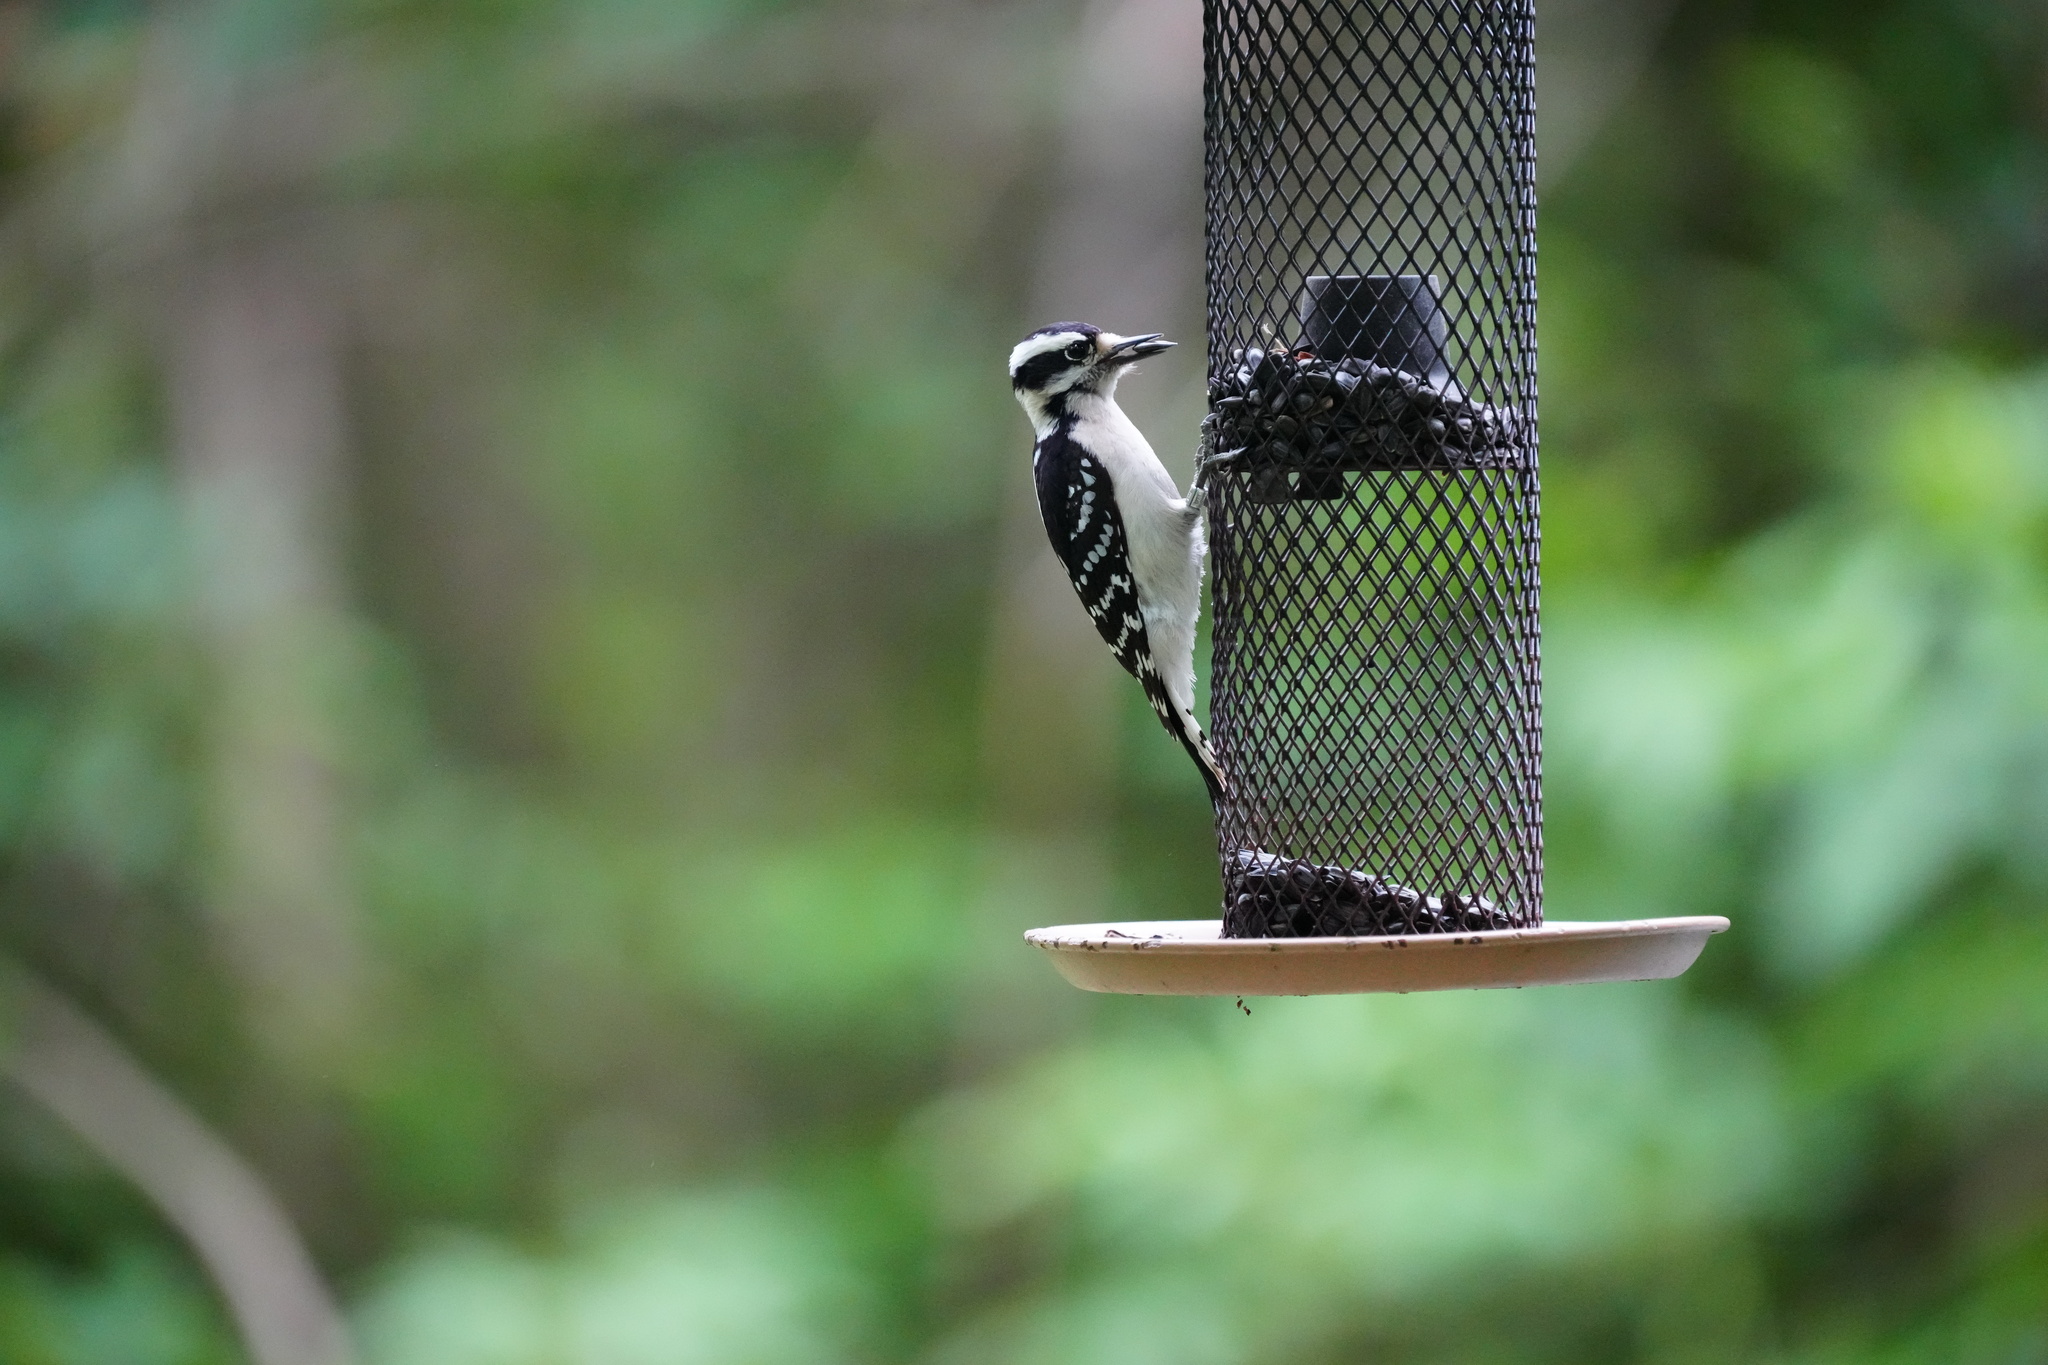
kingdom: Animalia
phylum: Chordata
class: Aves
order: Piciformes
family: Picidae
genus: Dryobates
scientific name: Dryobates pubescens
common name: Downy woodpecker
